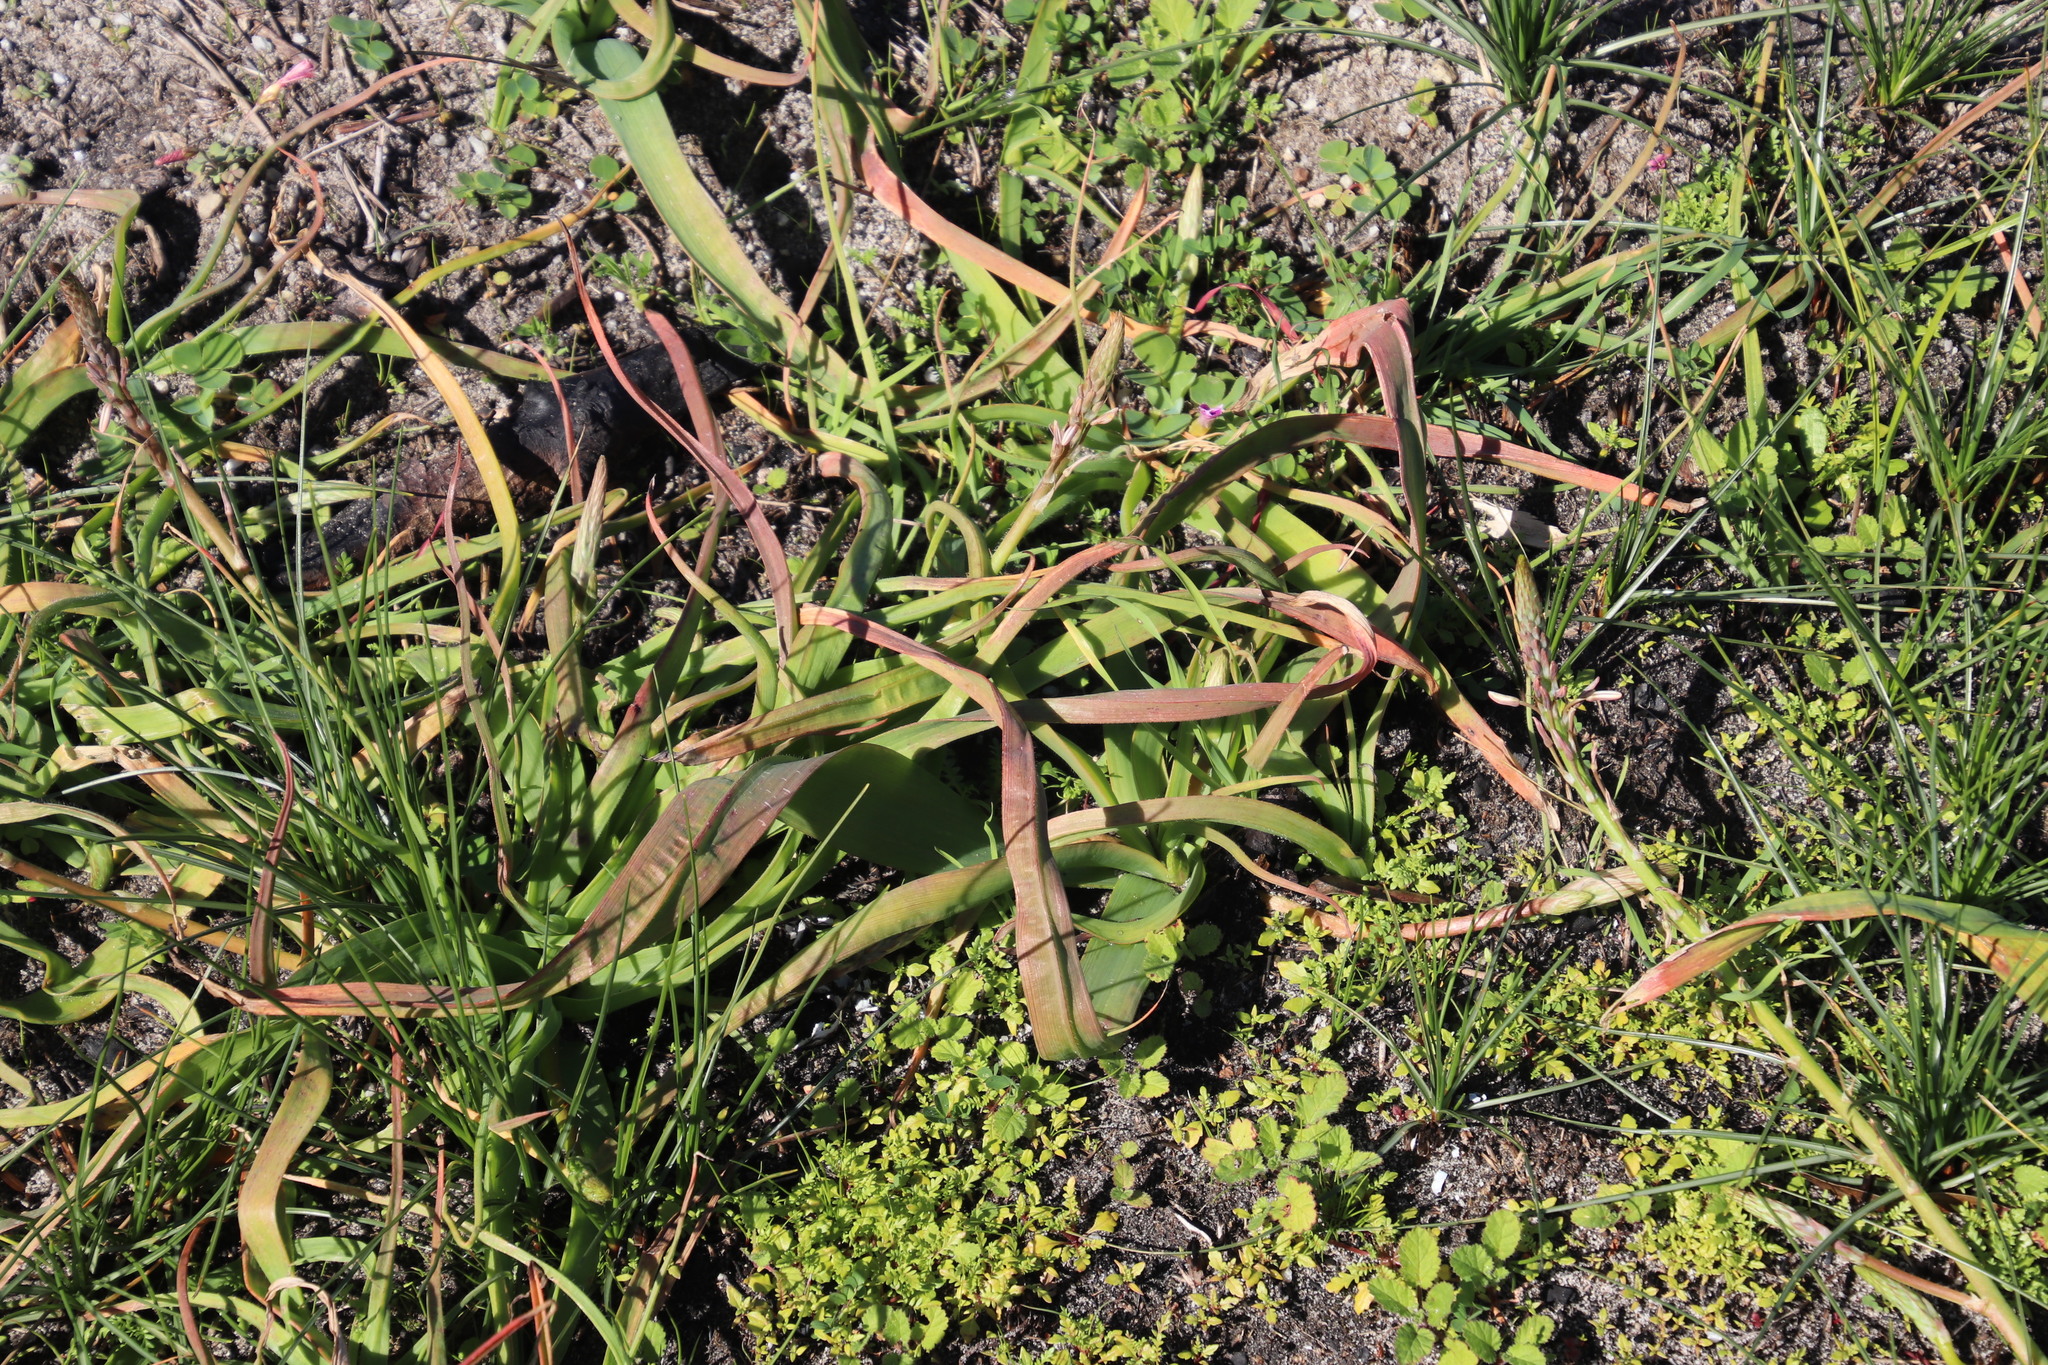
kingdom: Plantae
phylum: Tracheophyta
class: Liliopsida
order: Asparagales
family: Asphodelaceae
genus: Trachyandra
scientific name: Trachyandra ciliata
